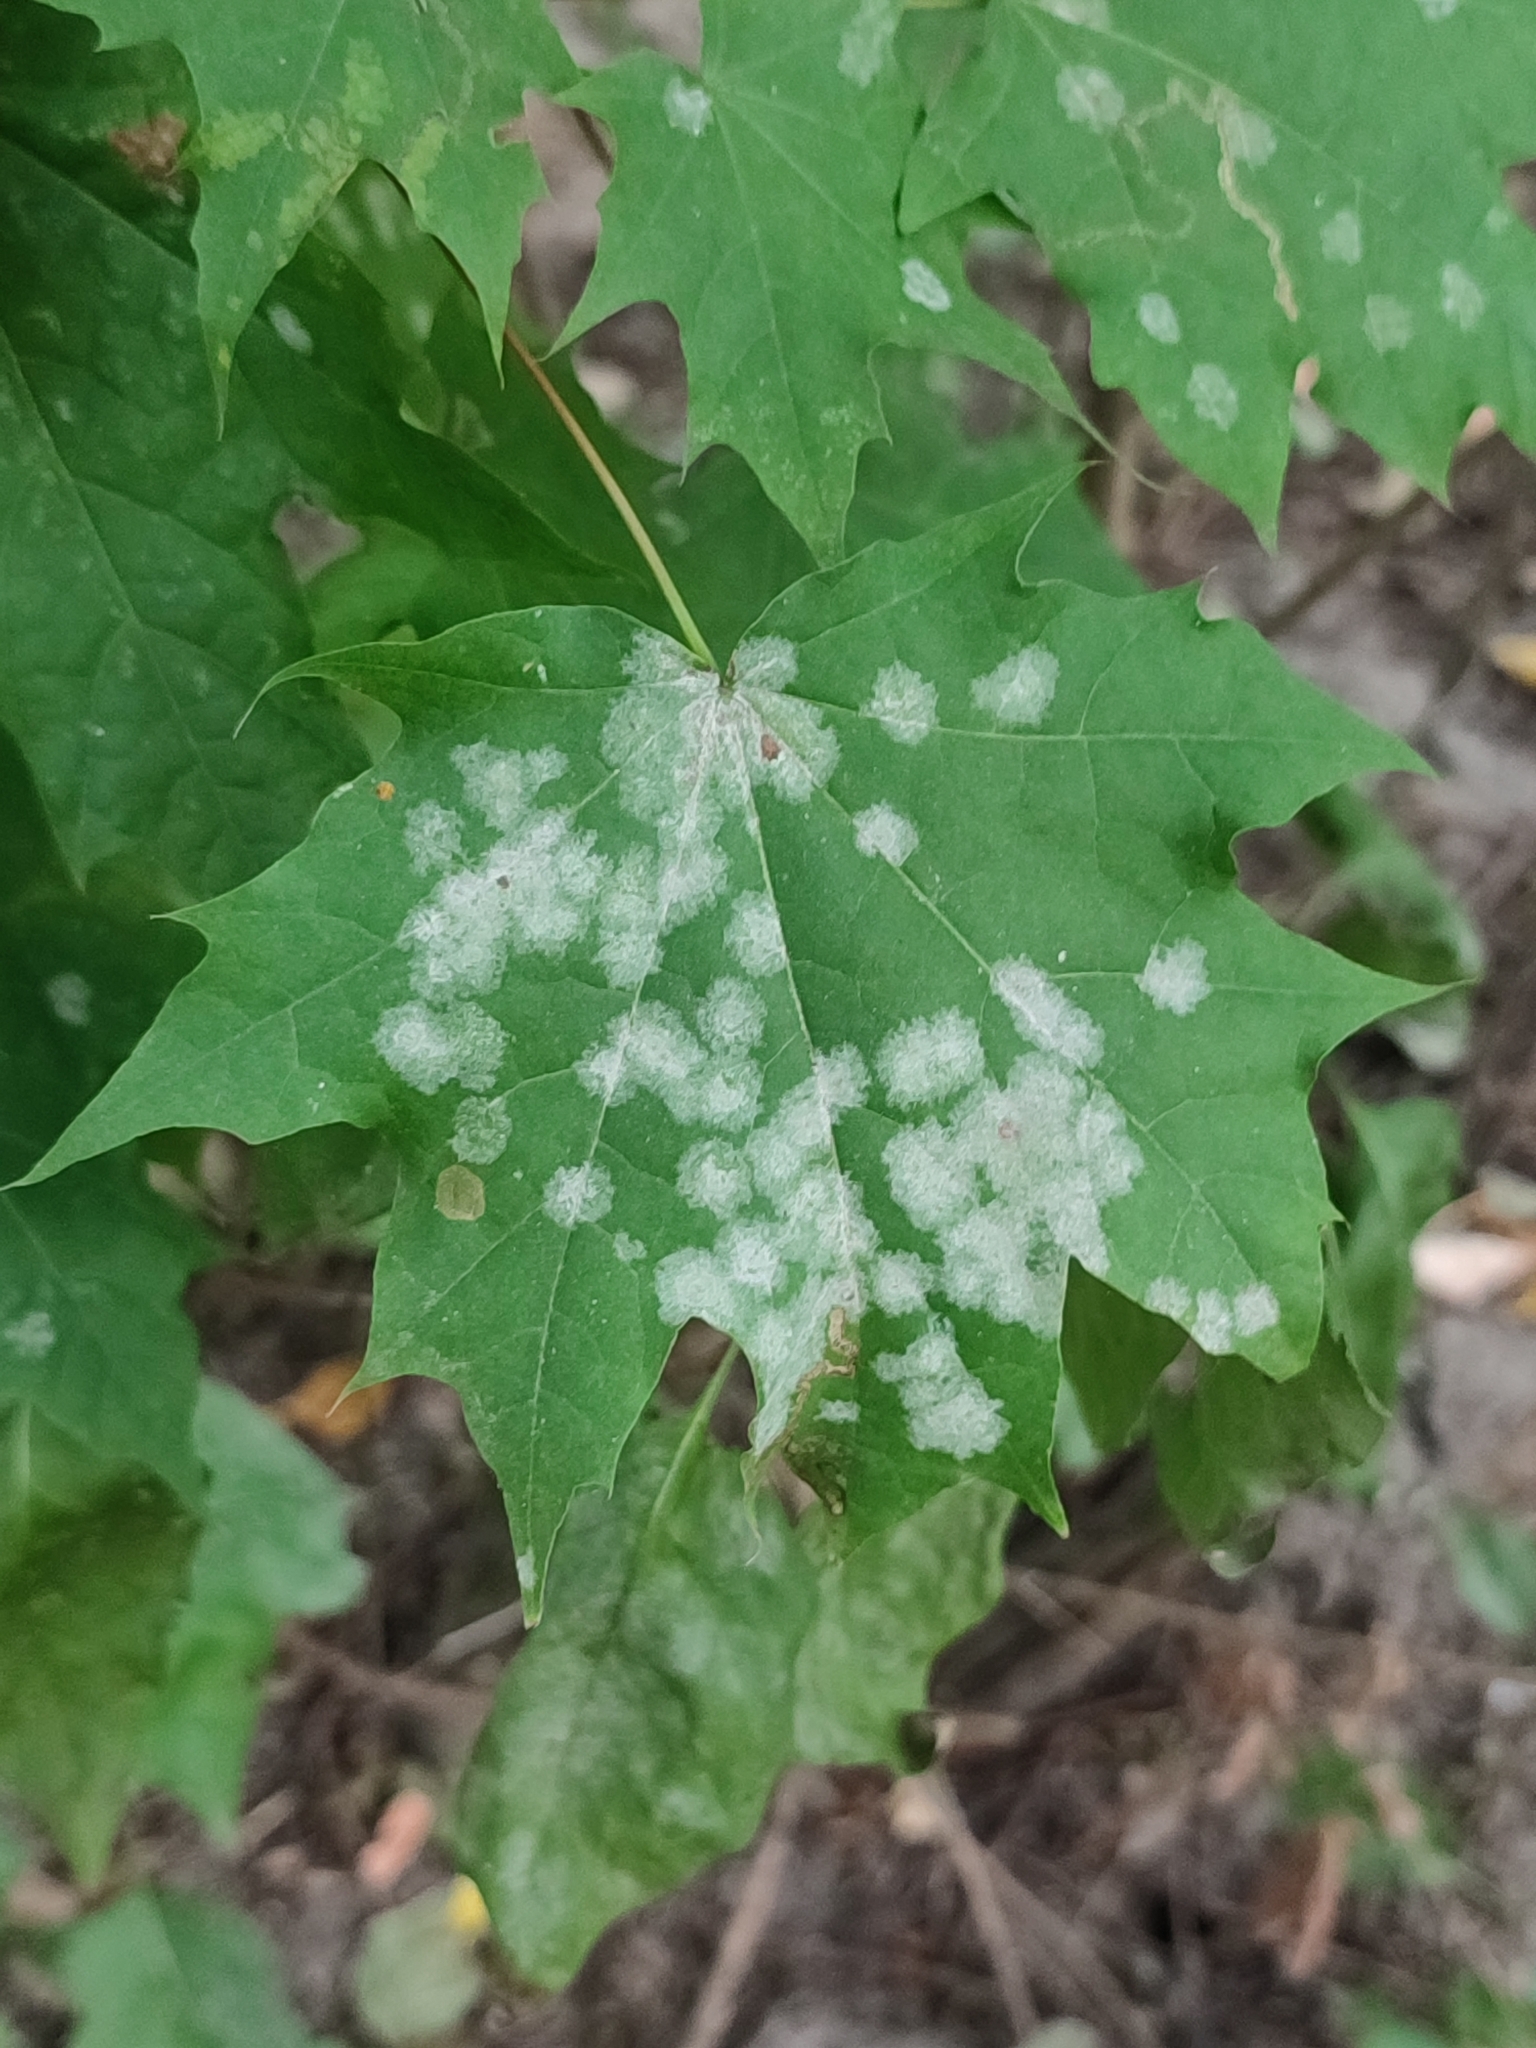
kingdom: Fungi
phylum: Ascomycota
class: Leotiomycetes
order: Helotiales
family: Erysiphaceae
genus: Sawadaea
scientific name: Sawadaea tulasnei
